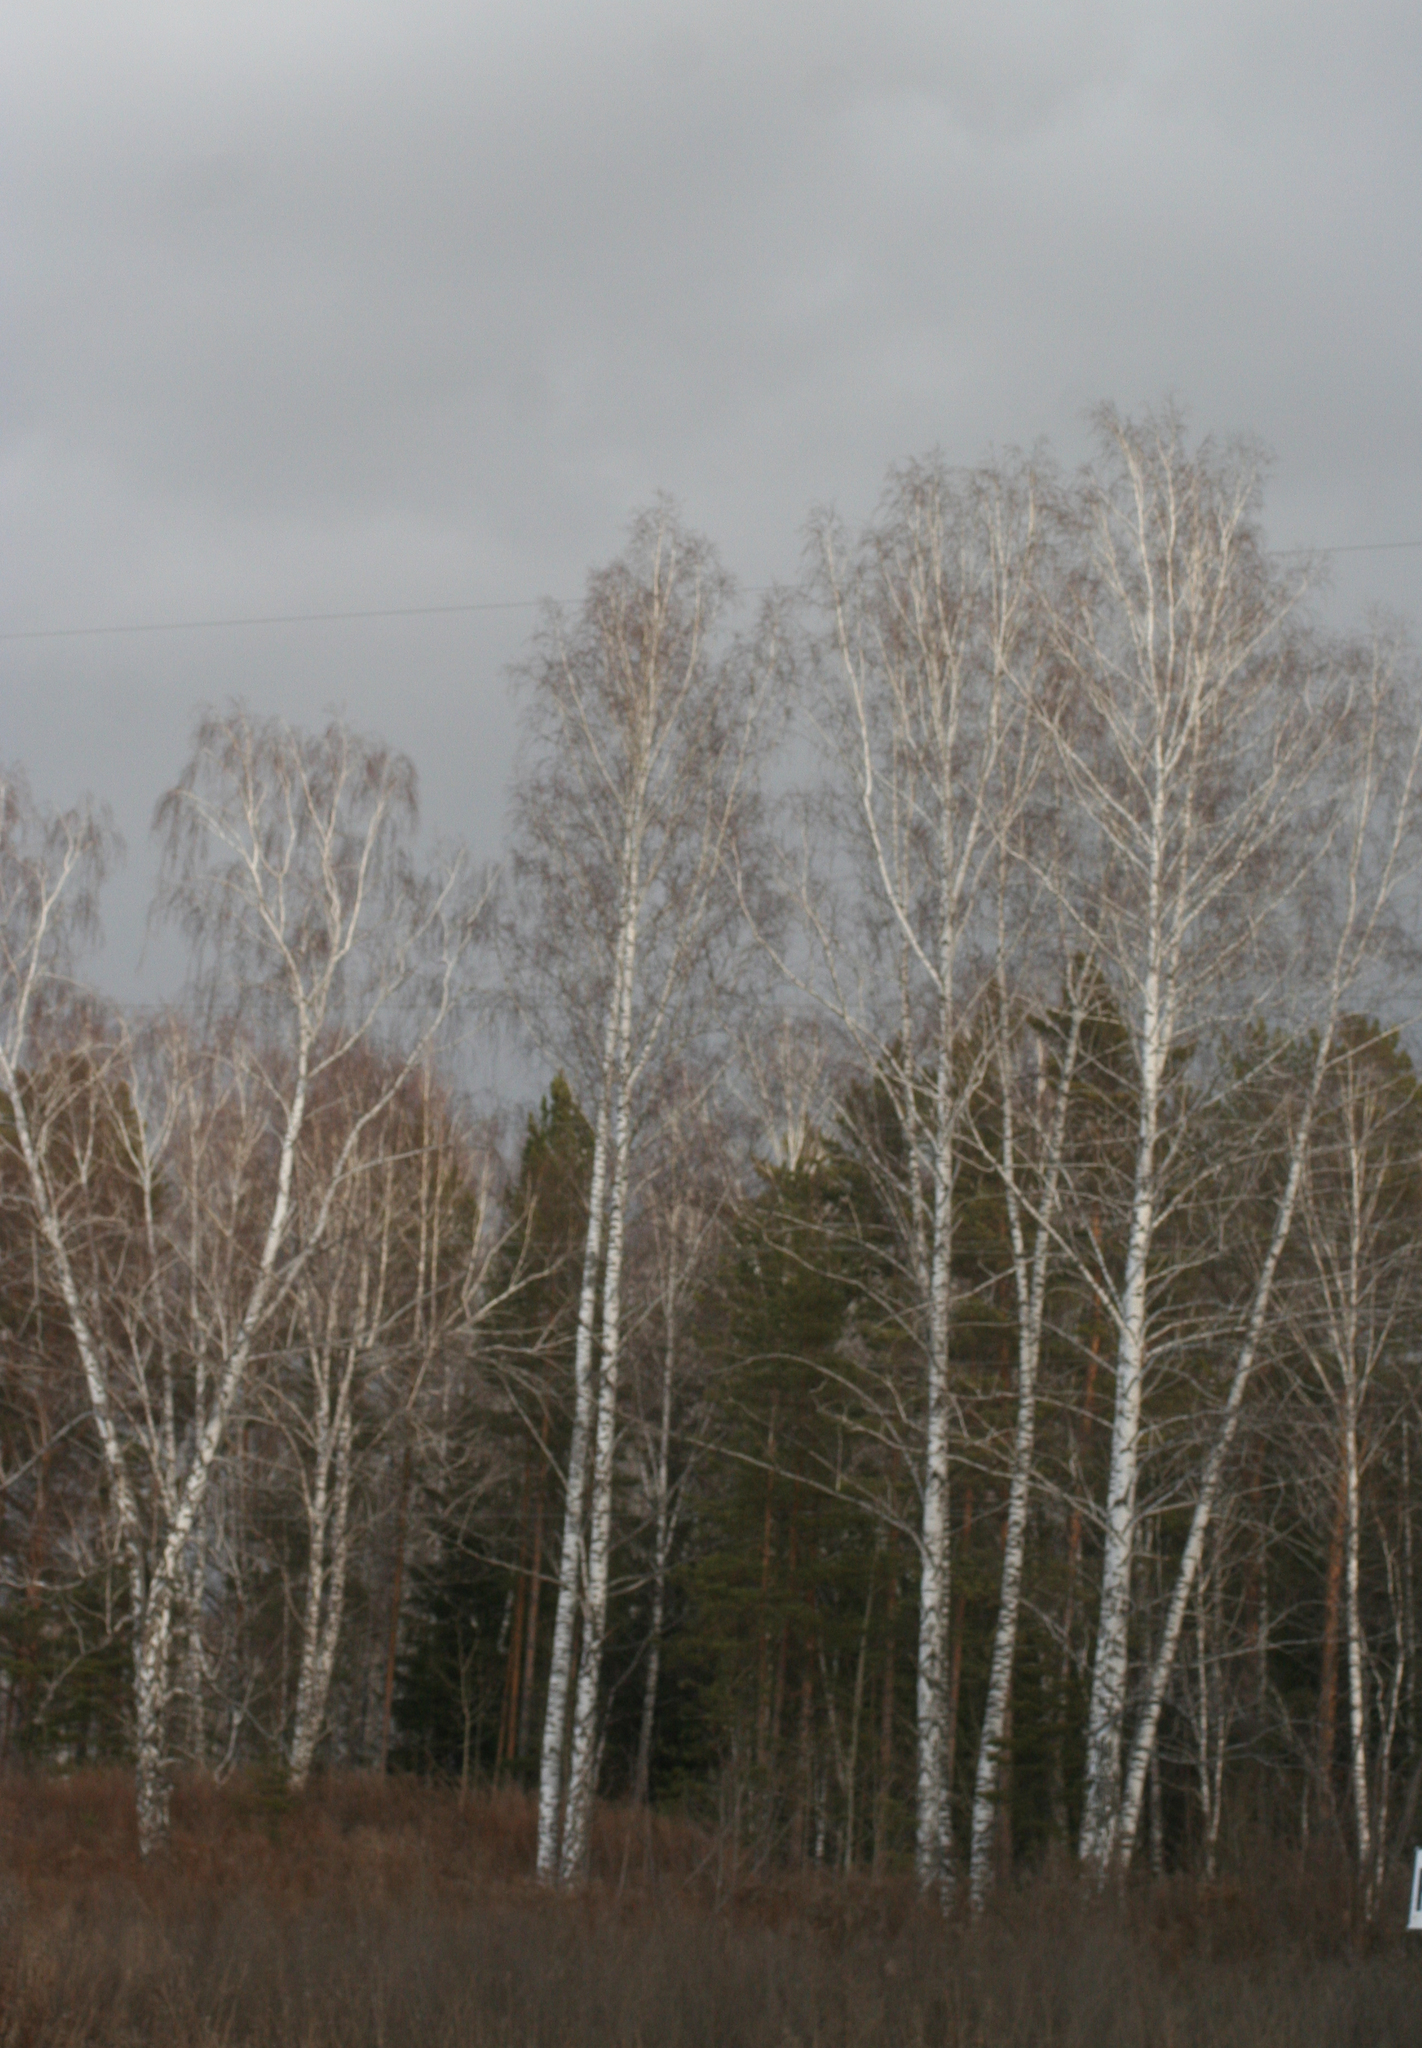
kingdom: Plantae
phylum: Tracheophyta
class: Magnoliopsida
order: Fagales
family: Betulaceae
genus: Betula
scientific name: Betula pendula
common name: Silver birch
